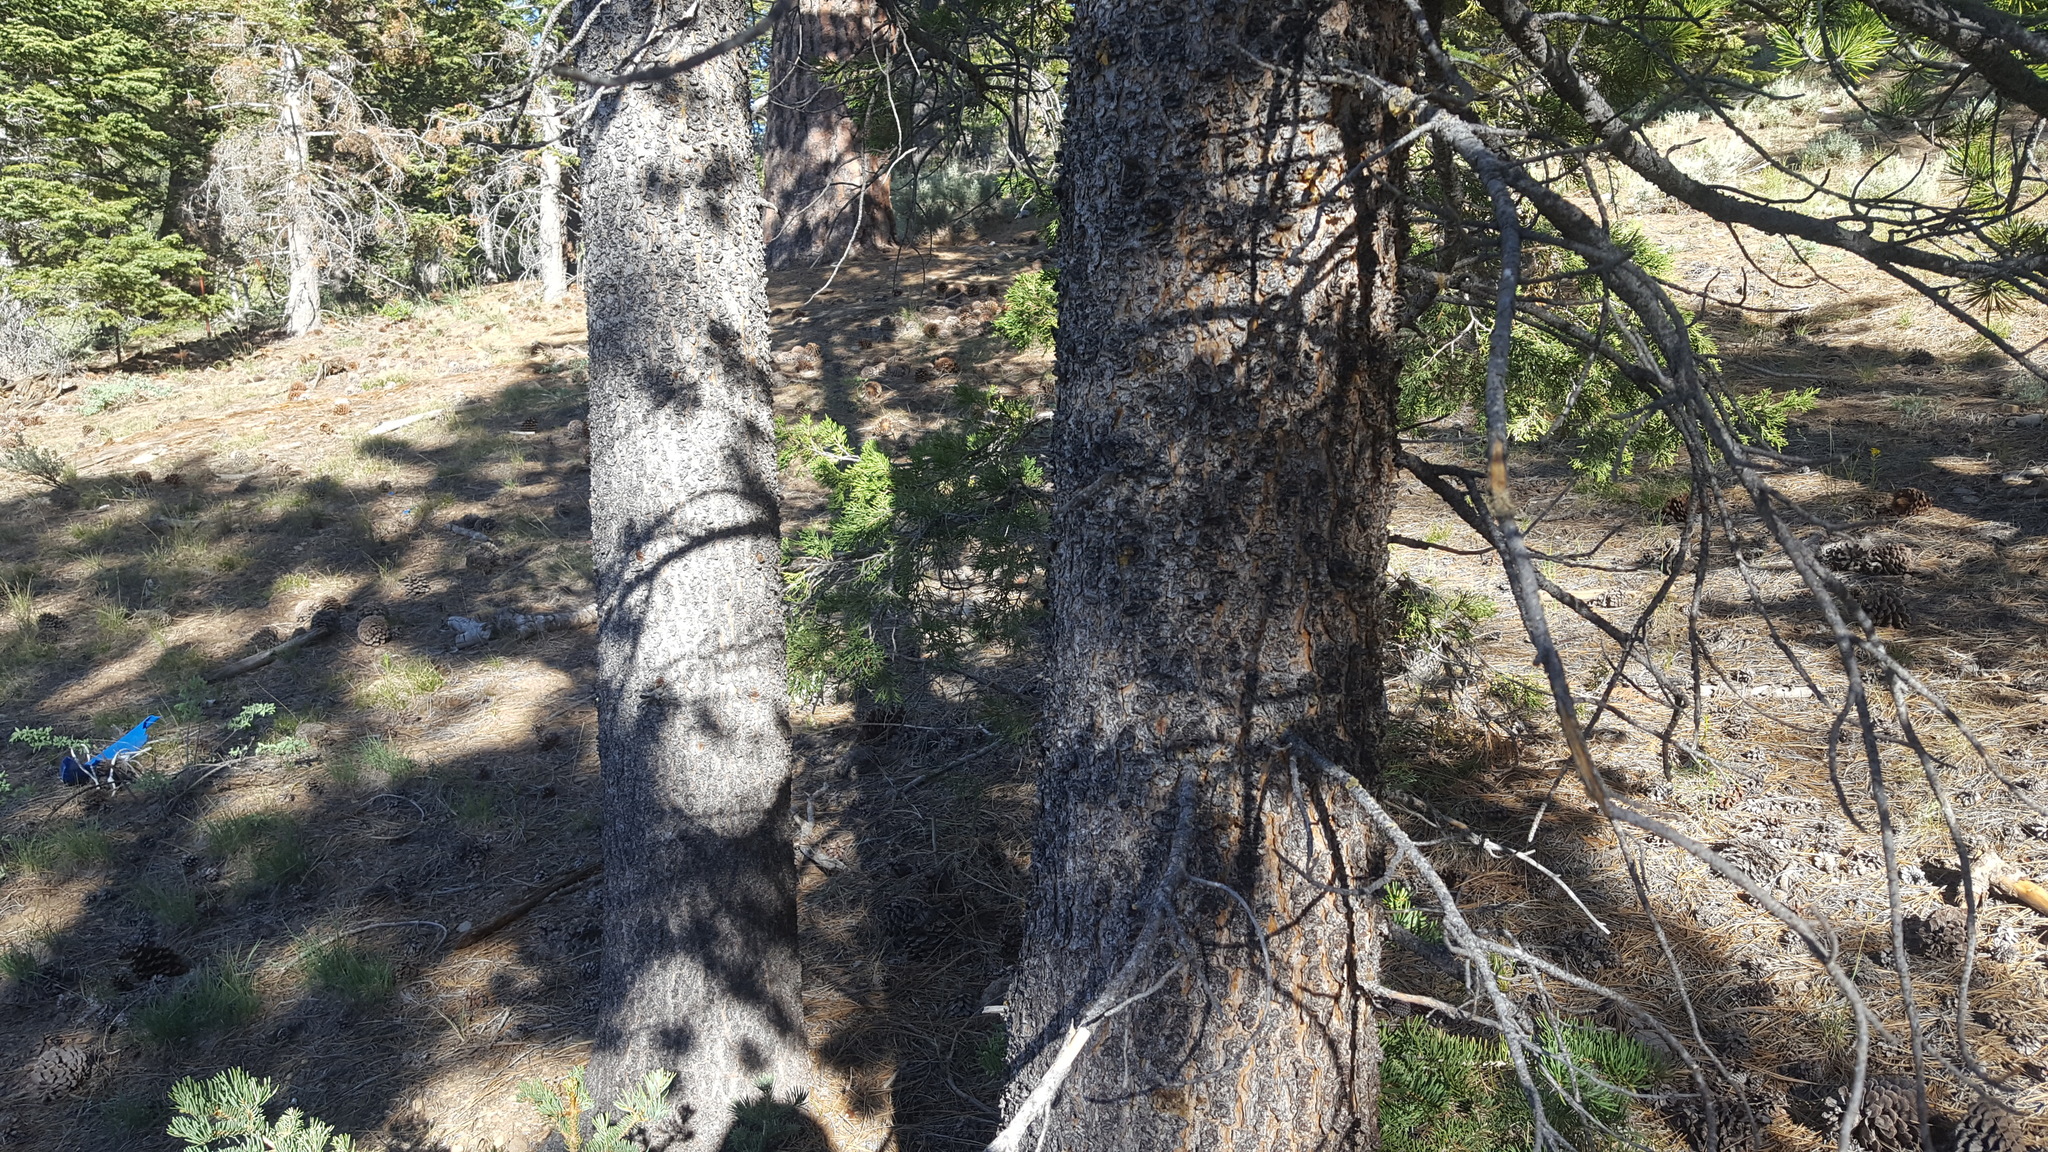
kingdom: Plantae
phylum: Tracheophyta
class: Pinopsida
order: Pinales
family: Pinaceae
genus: Pinus
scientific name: Pinus contorta
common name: Lodgepole pine
